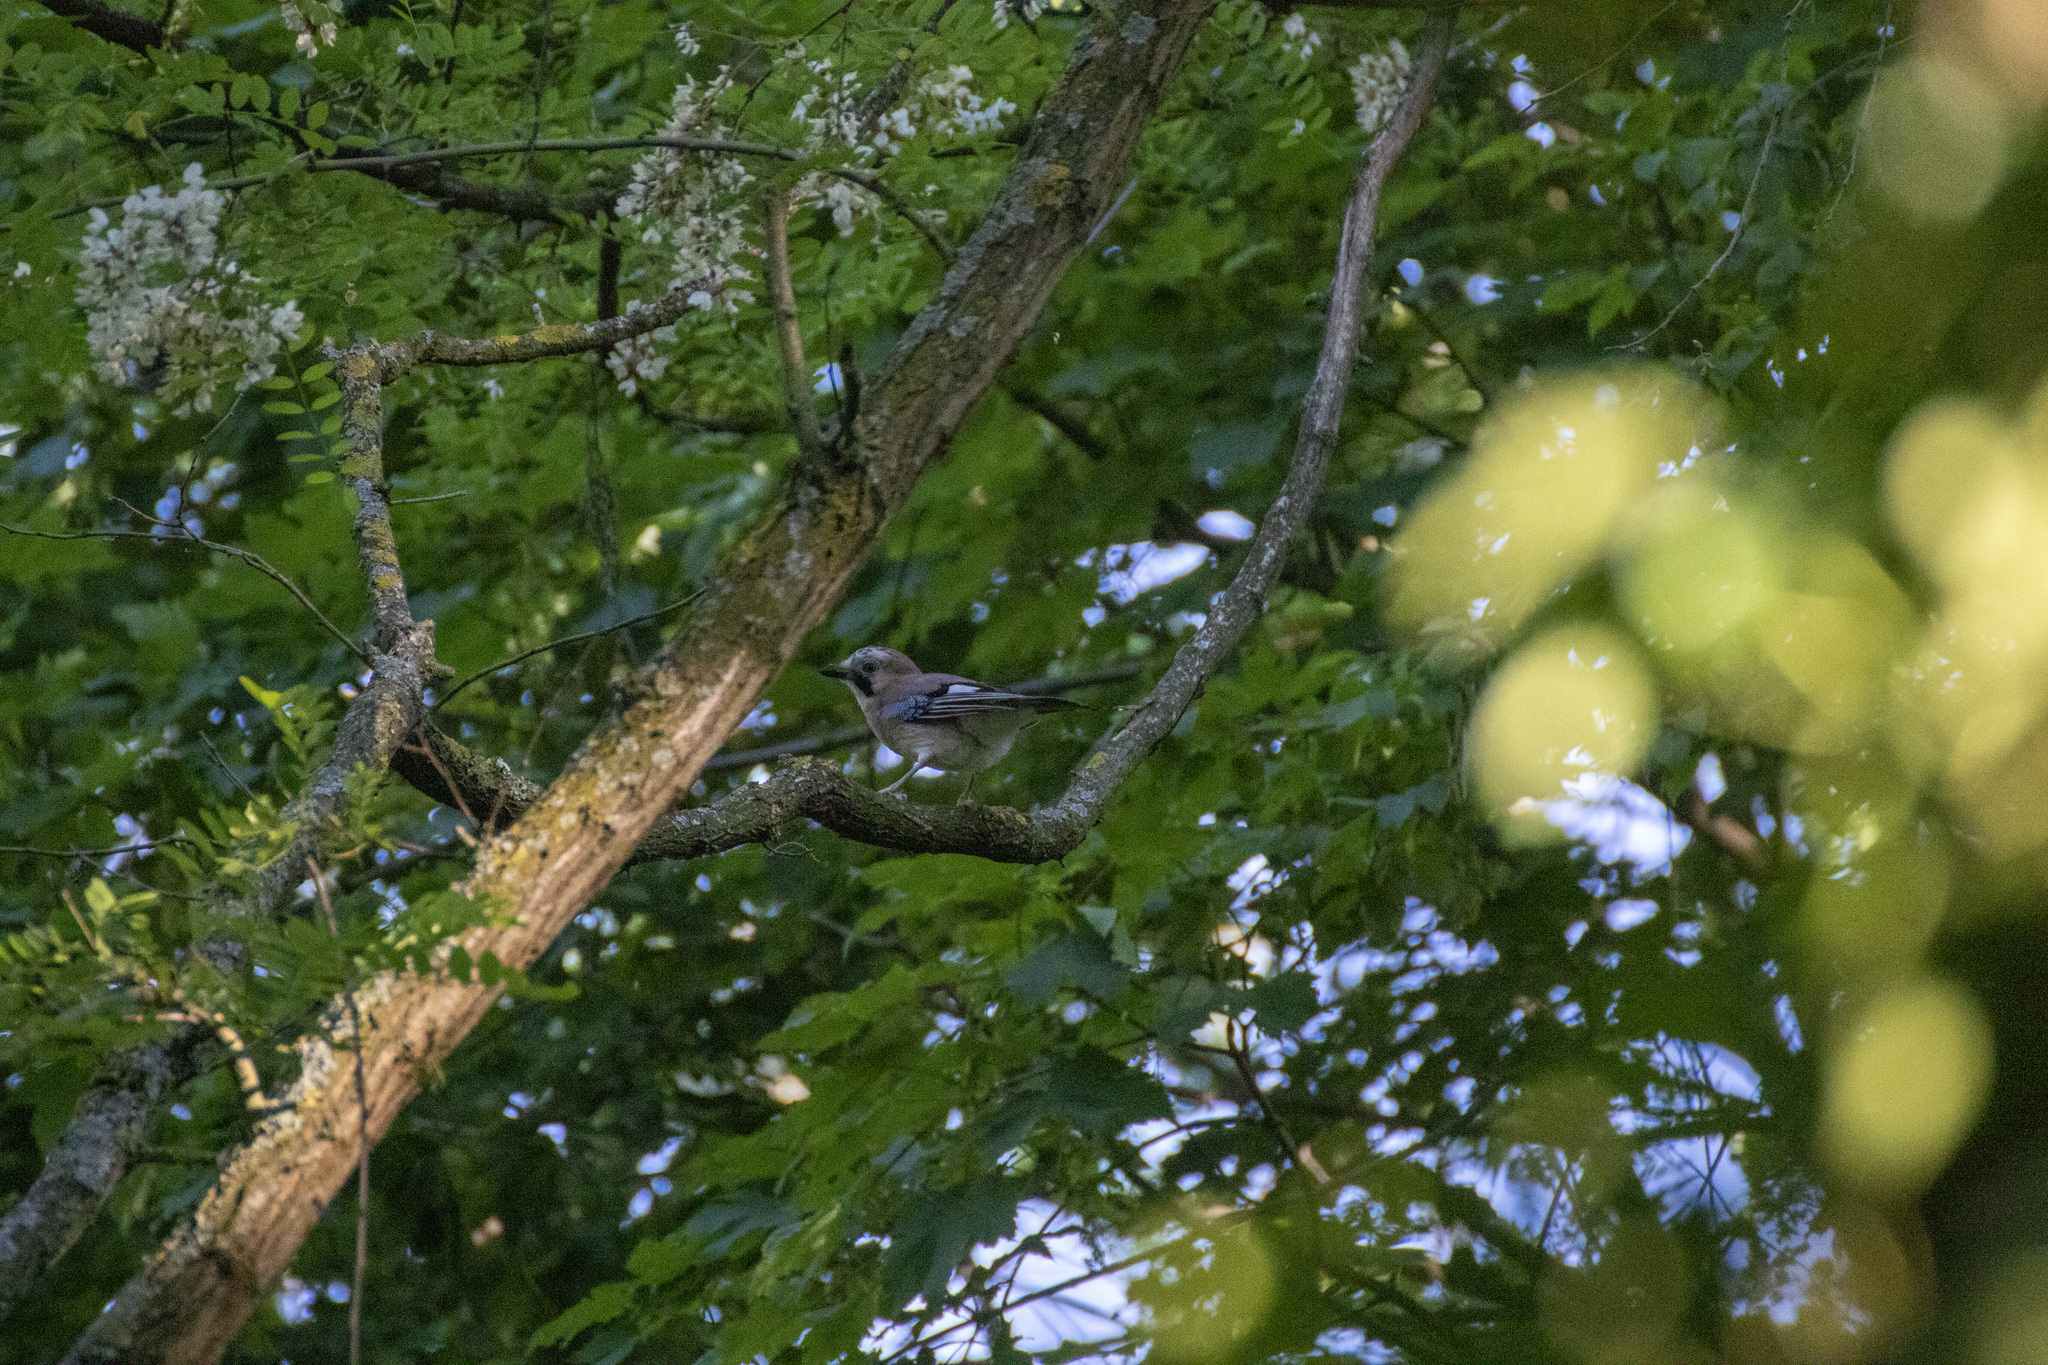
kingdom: Animalia
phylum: Chordata
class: Aves
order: Passeriformes
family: Corvidae
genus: Garrulus
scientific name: Garrulus glandarius
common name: Eurasian jay
